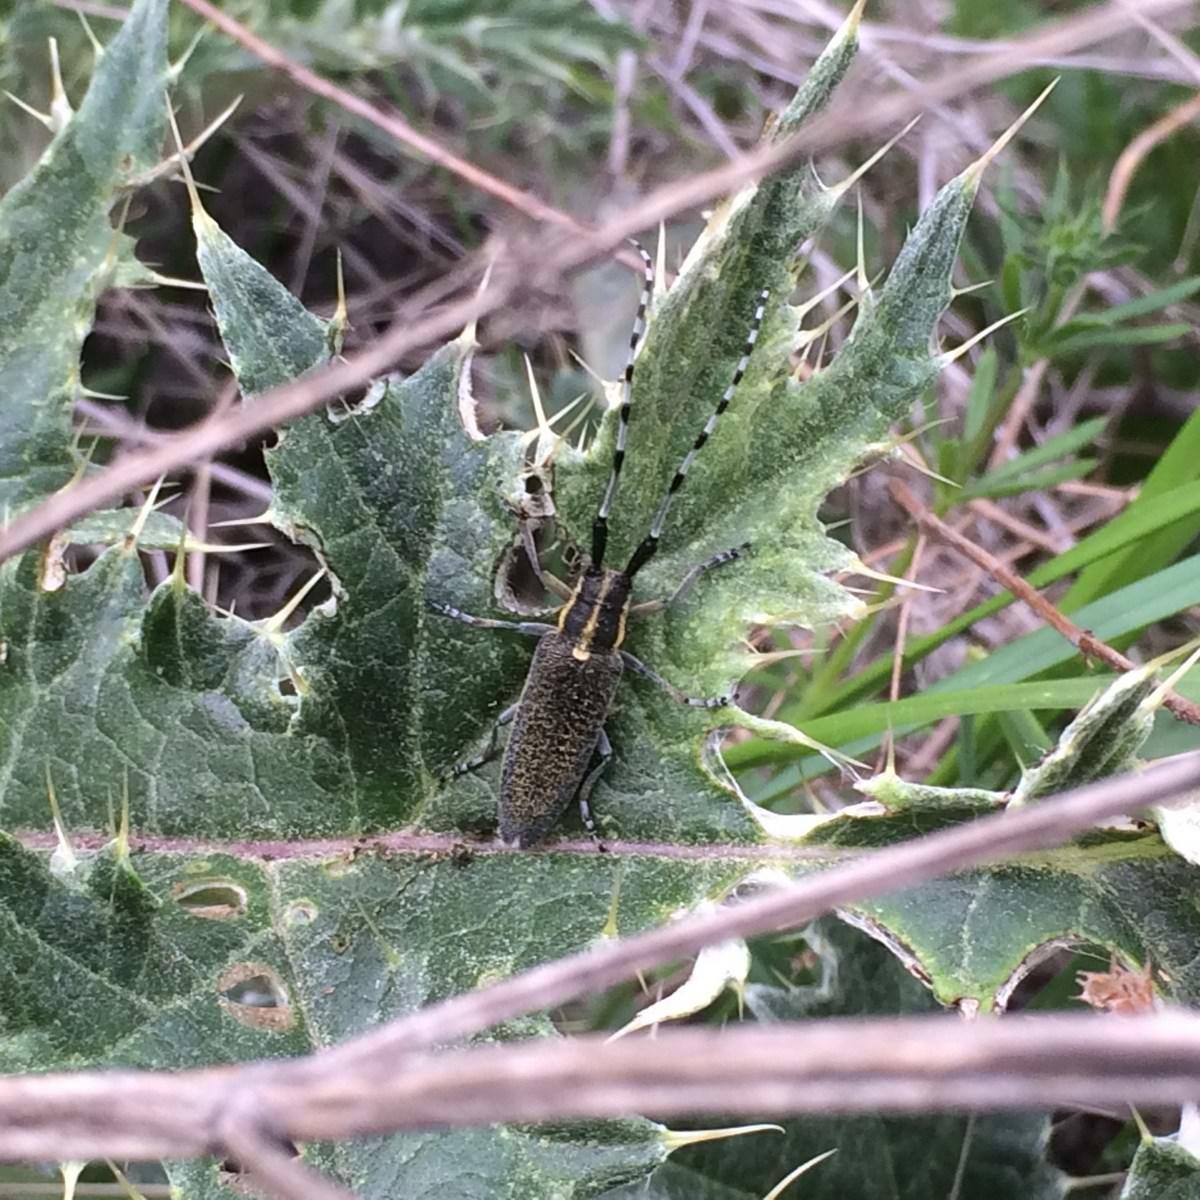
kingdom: Animalia
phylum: Arthropoda
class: Insecta
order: Coleoptera
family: Cerambycidae
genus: Agapanthia
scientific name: Agapanthia lederi
